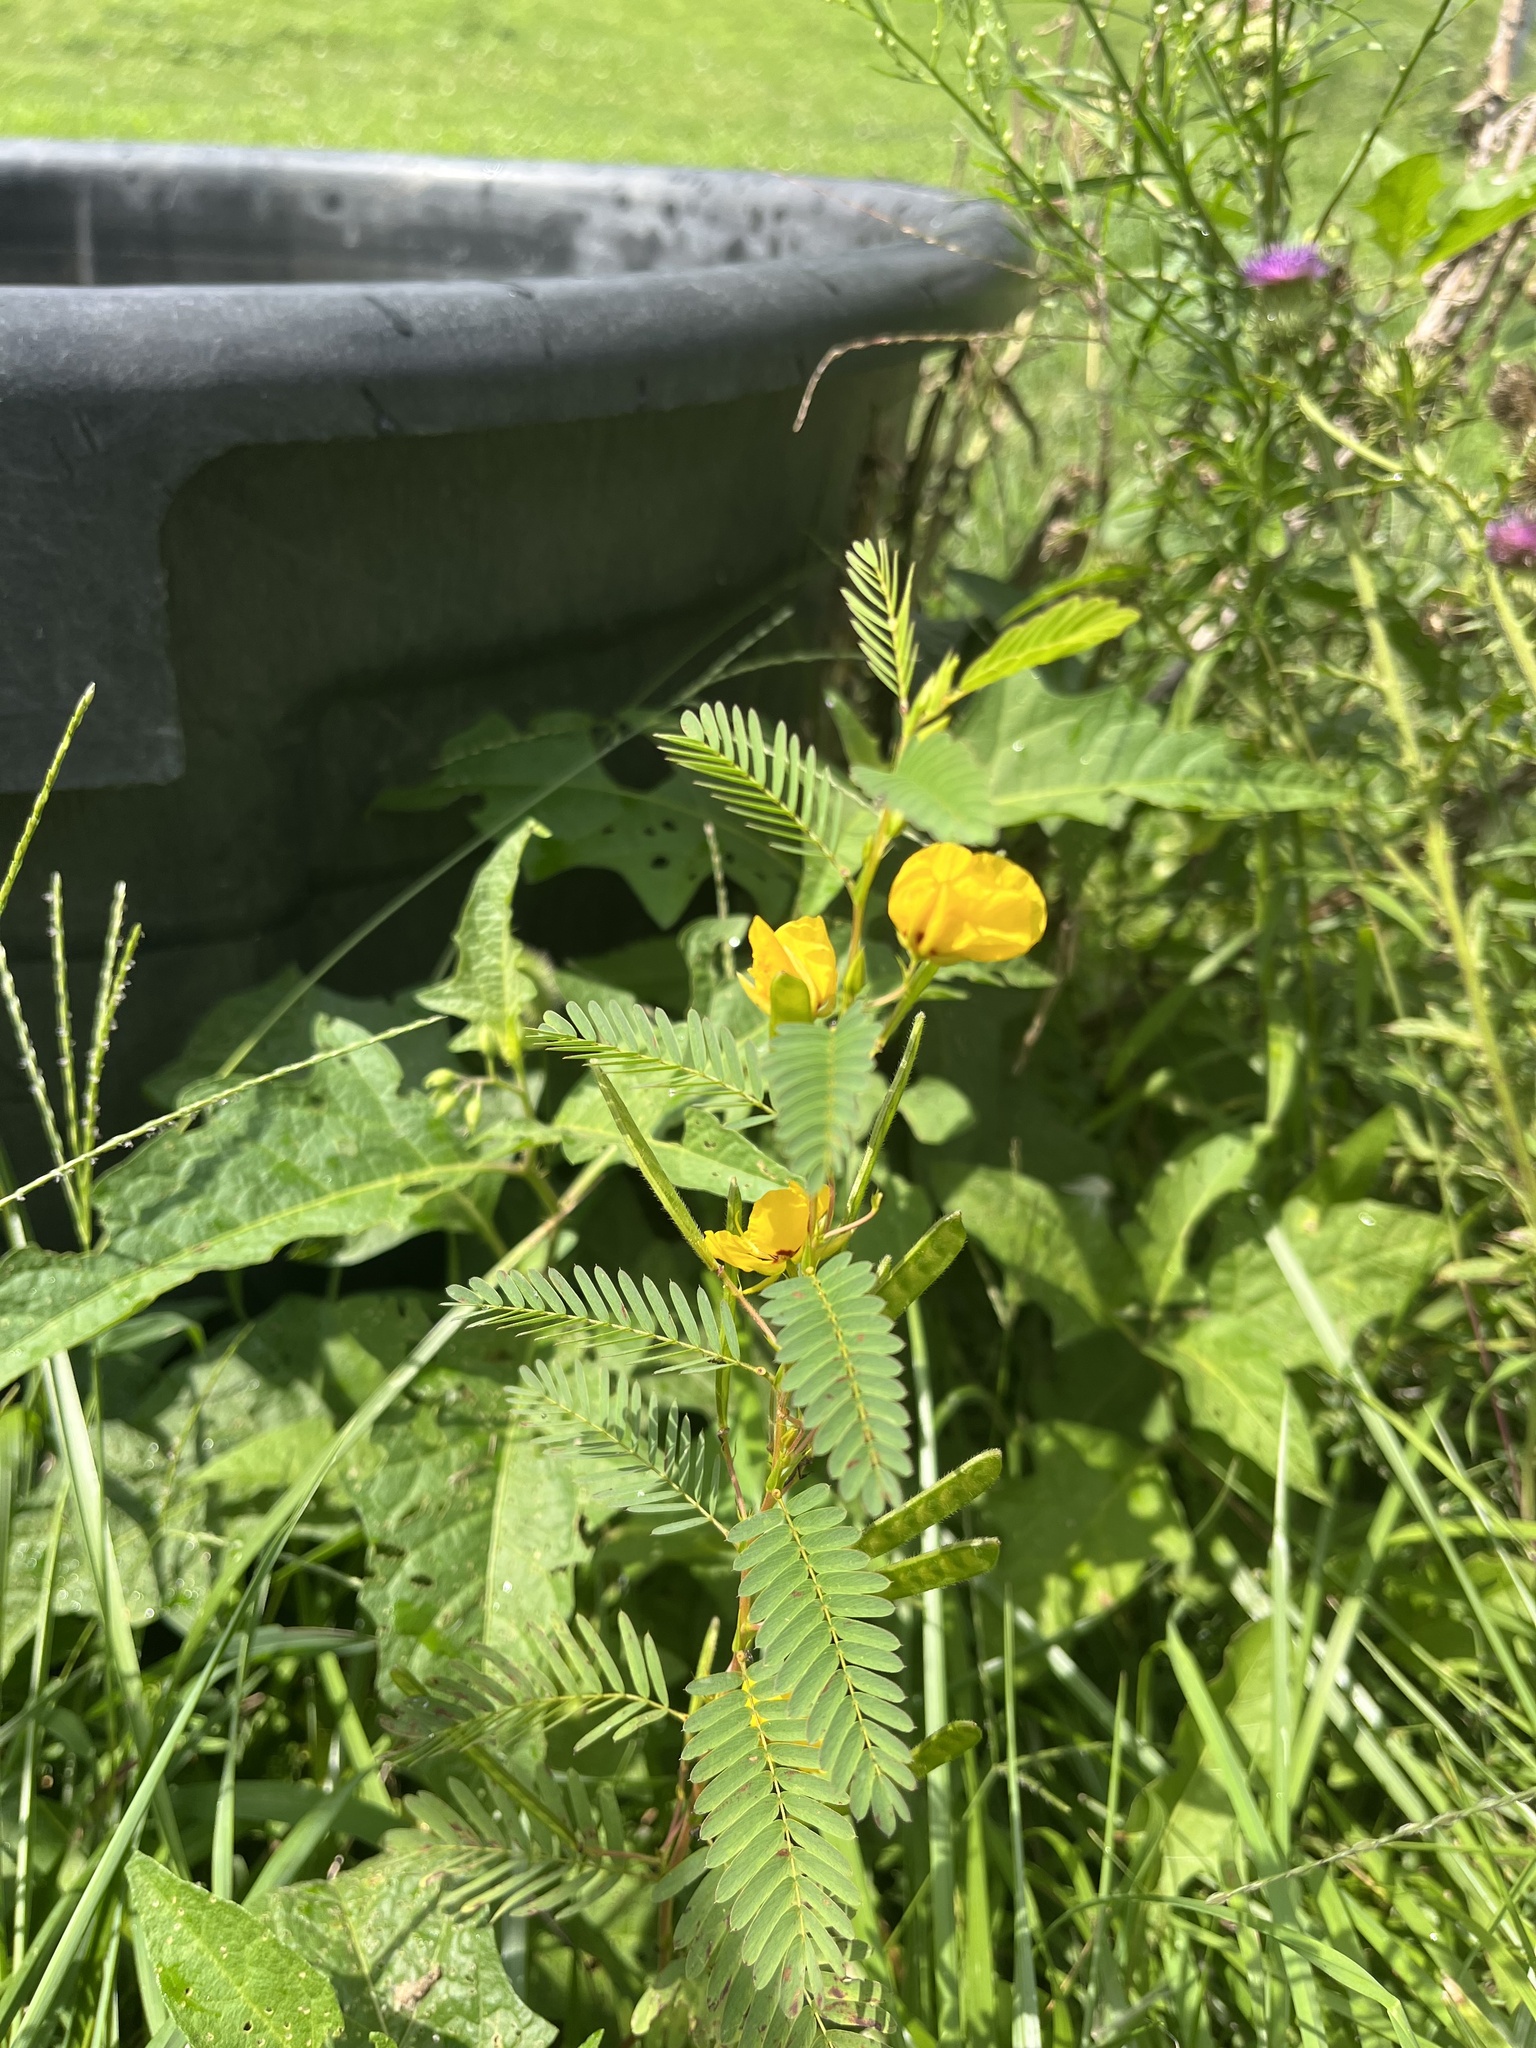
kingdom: Plantae
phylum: Tracheophyta
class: Magnoliopsida
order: Fabales
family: Fabaceae
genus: Chamaecrista
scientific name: Chamaecrista fasciculata
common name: Golden cassia
